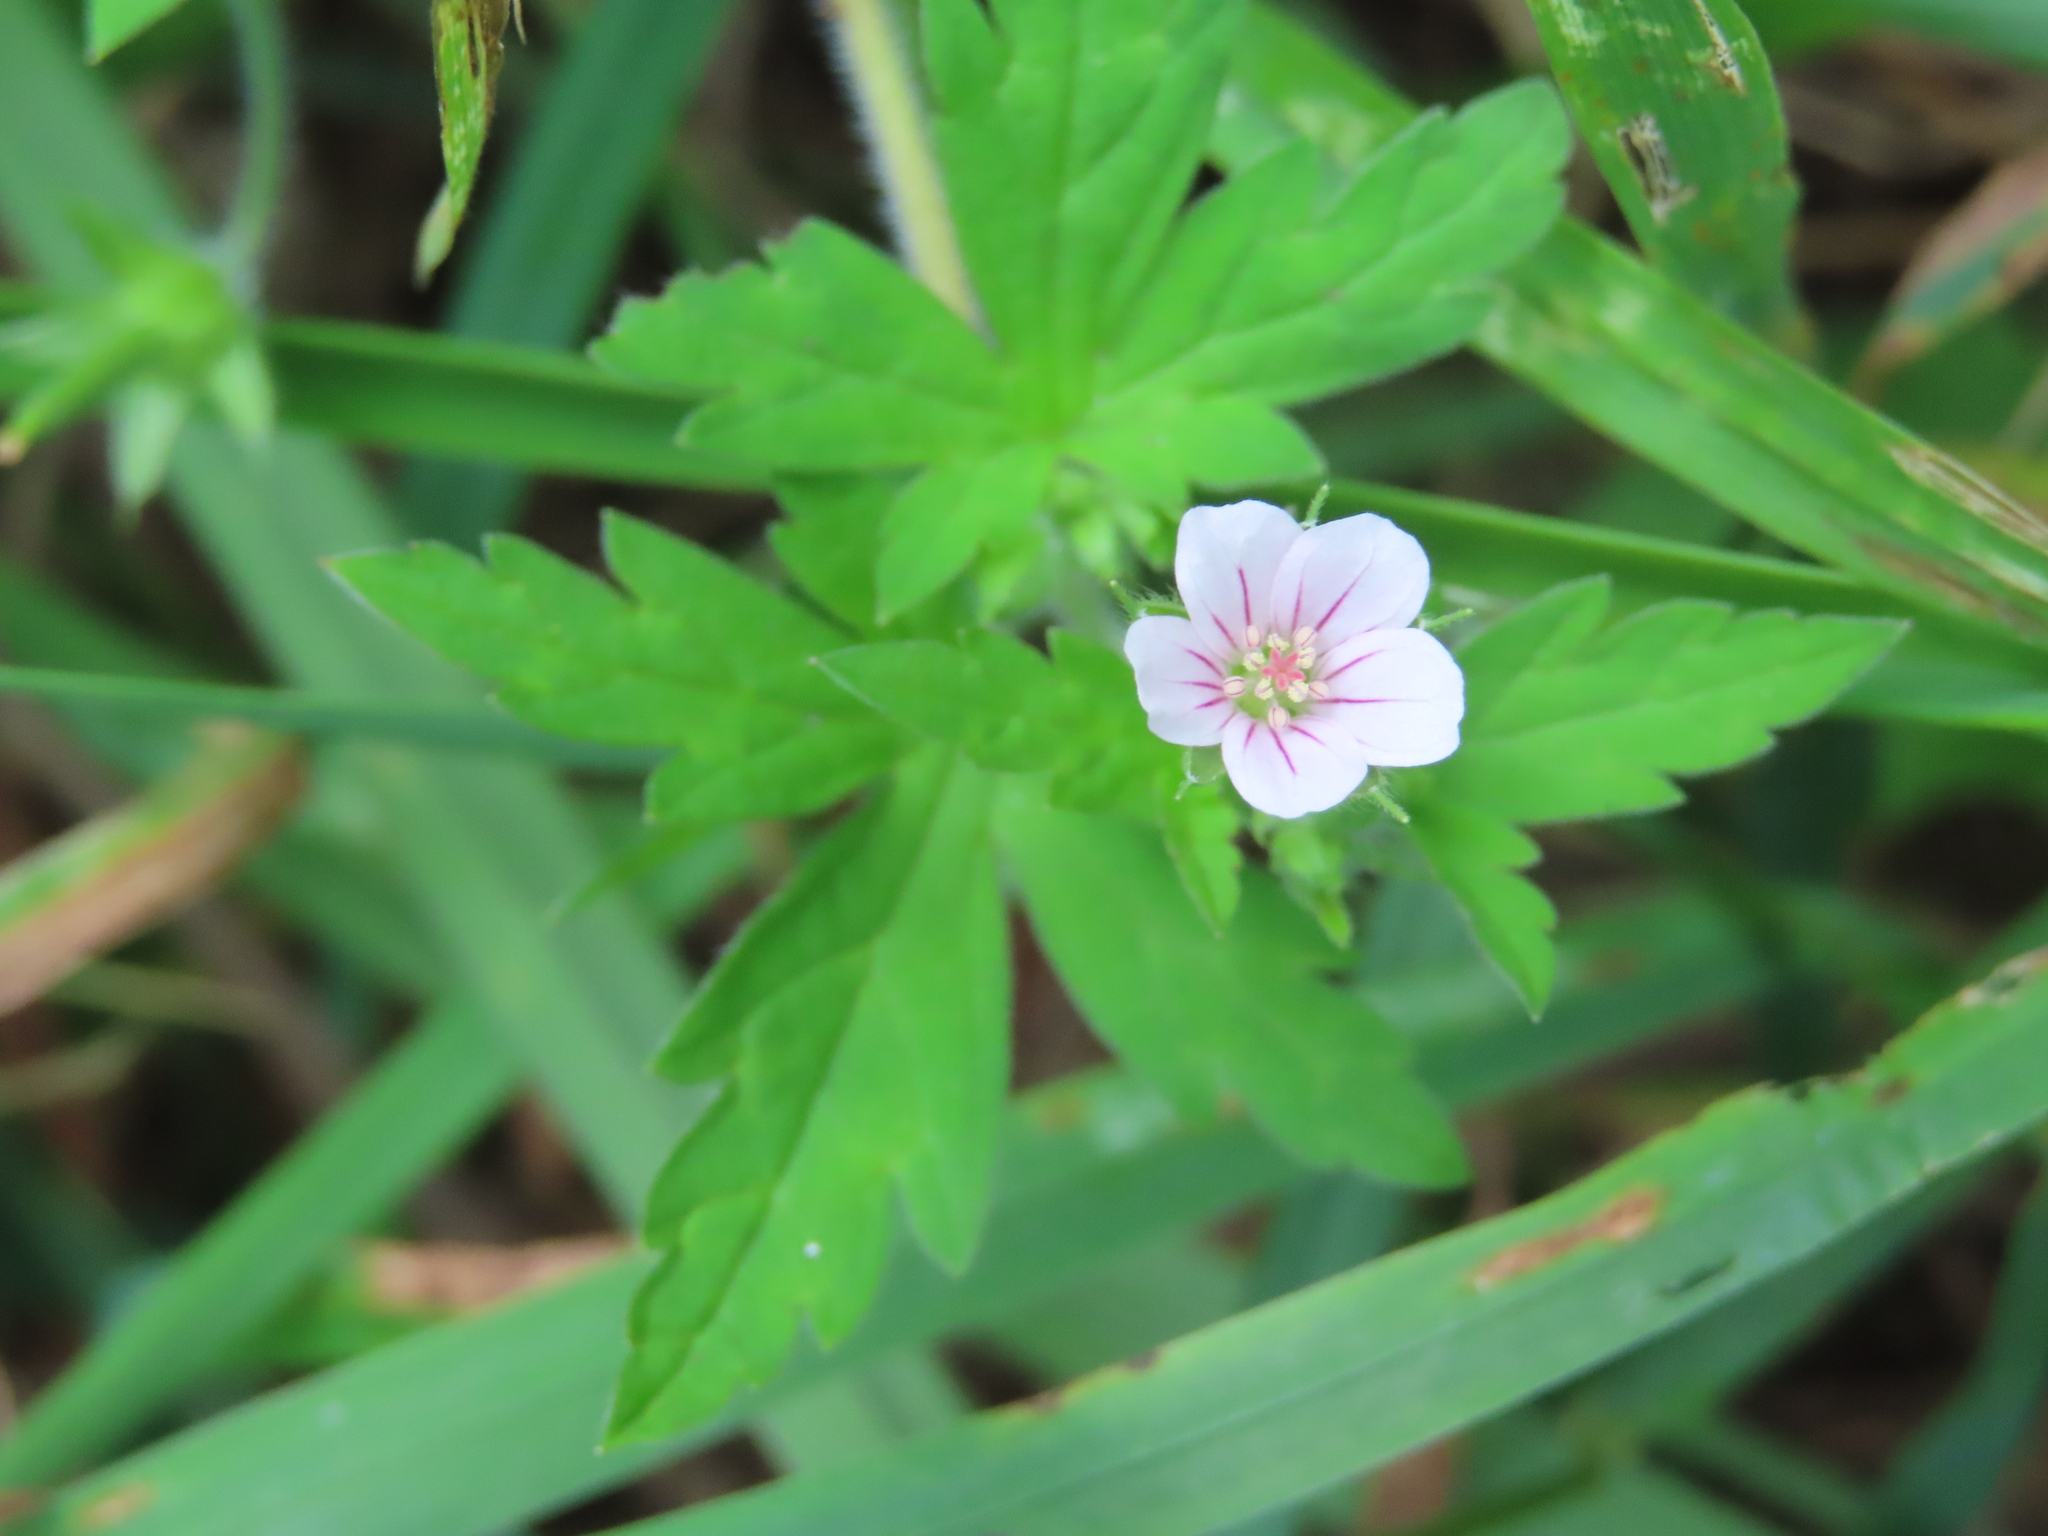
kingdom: Plantae
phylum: Tracheophyta
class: Magnoliopsida
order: Geraniales
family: Geraniaceae
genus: Geranium
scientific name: Geranium sibiricum
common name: Siberian crane's-bill
